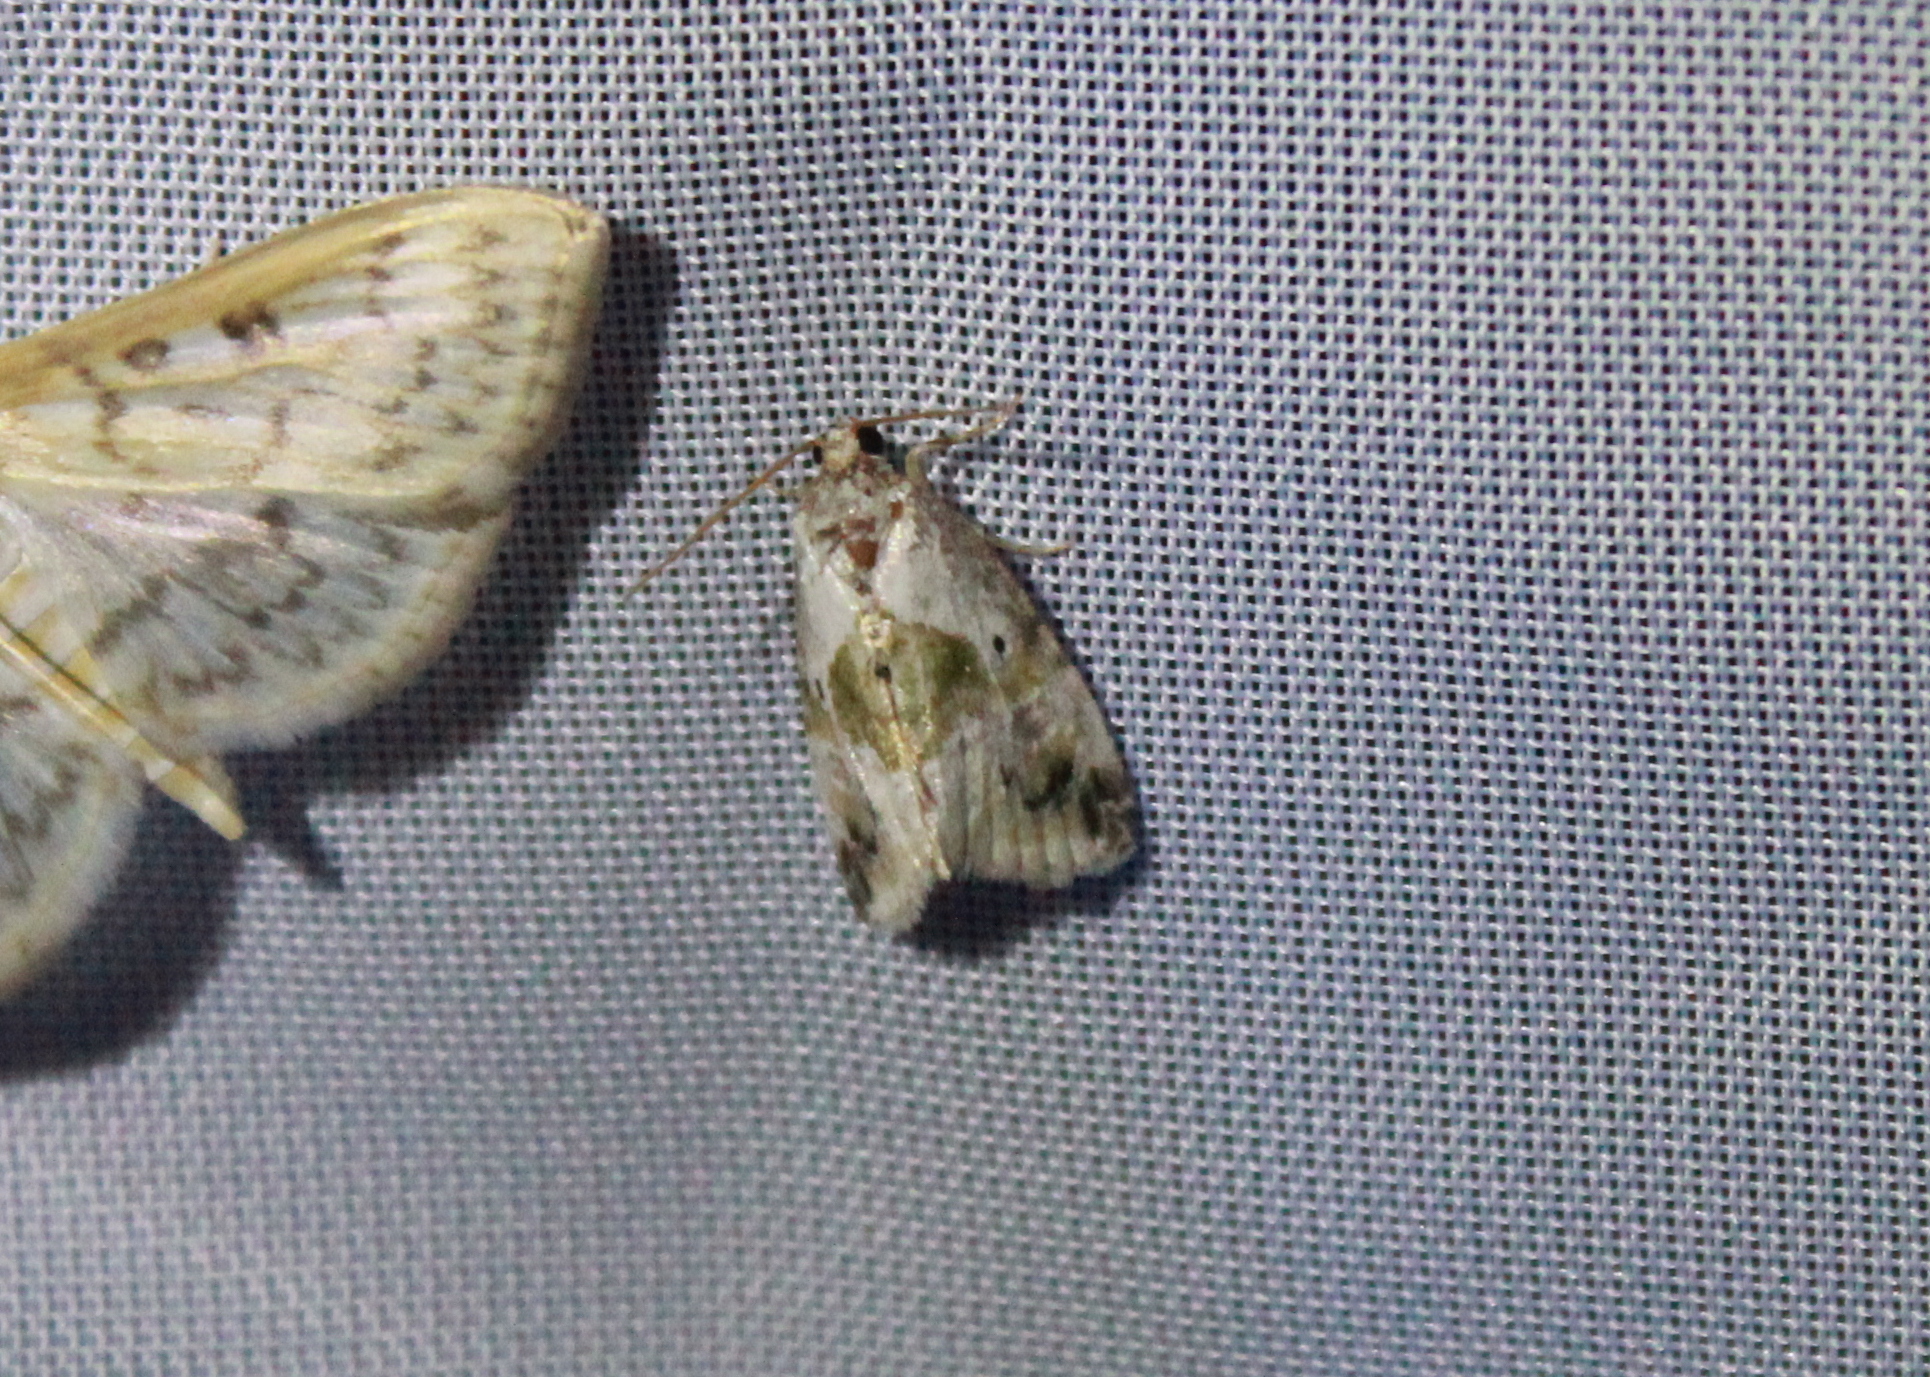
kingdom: Animalia
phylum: Arthropoda
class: Insecta
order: Lepidoptera
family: Noctuidae
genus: Maliattha
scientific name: Maliattha synochitis
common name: Black-dotted glyph
